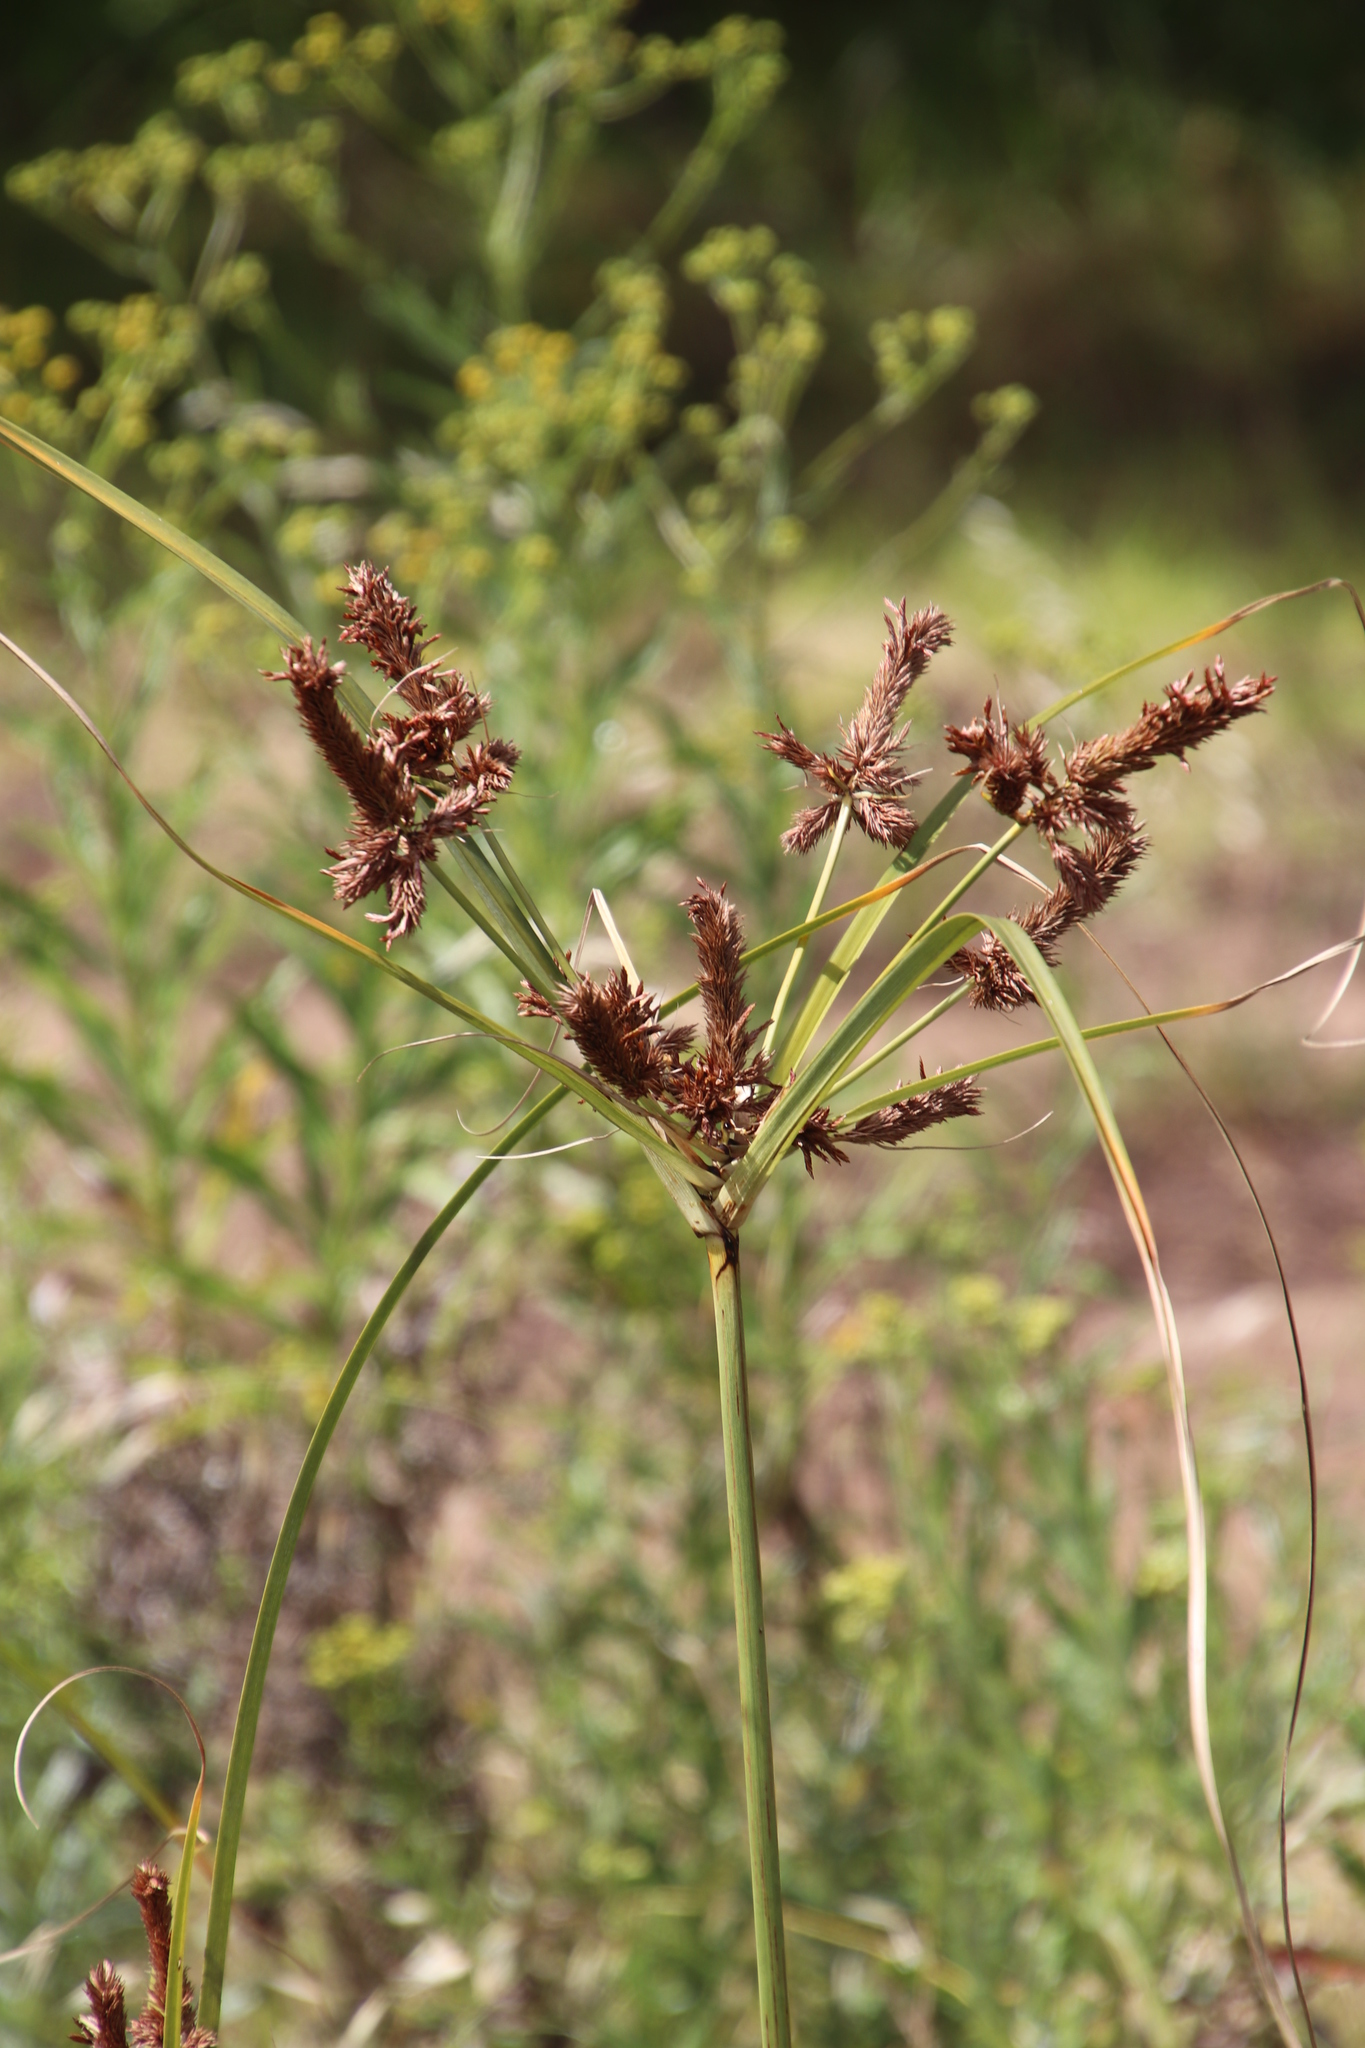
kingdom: Plantae
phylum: Tracheophyta
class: Liliopsida
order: Poales
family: Cyperaceae
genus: Cyperus
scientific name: Cyperus thunbergii
